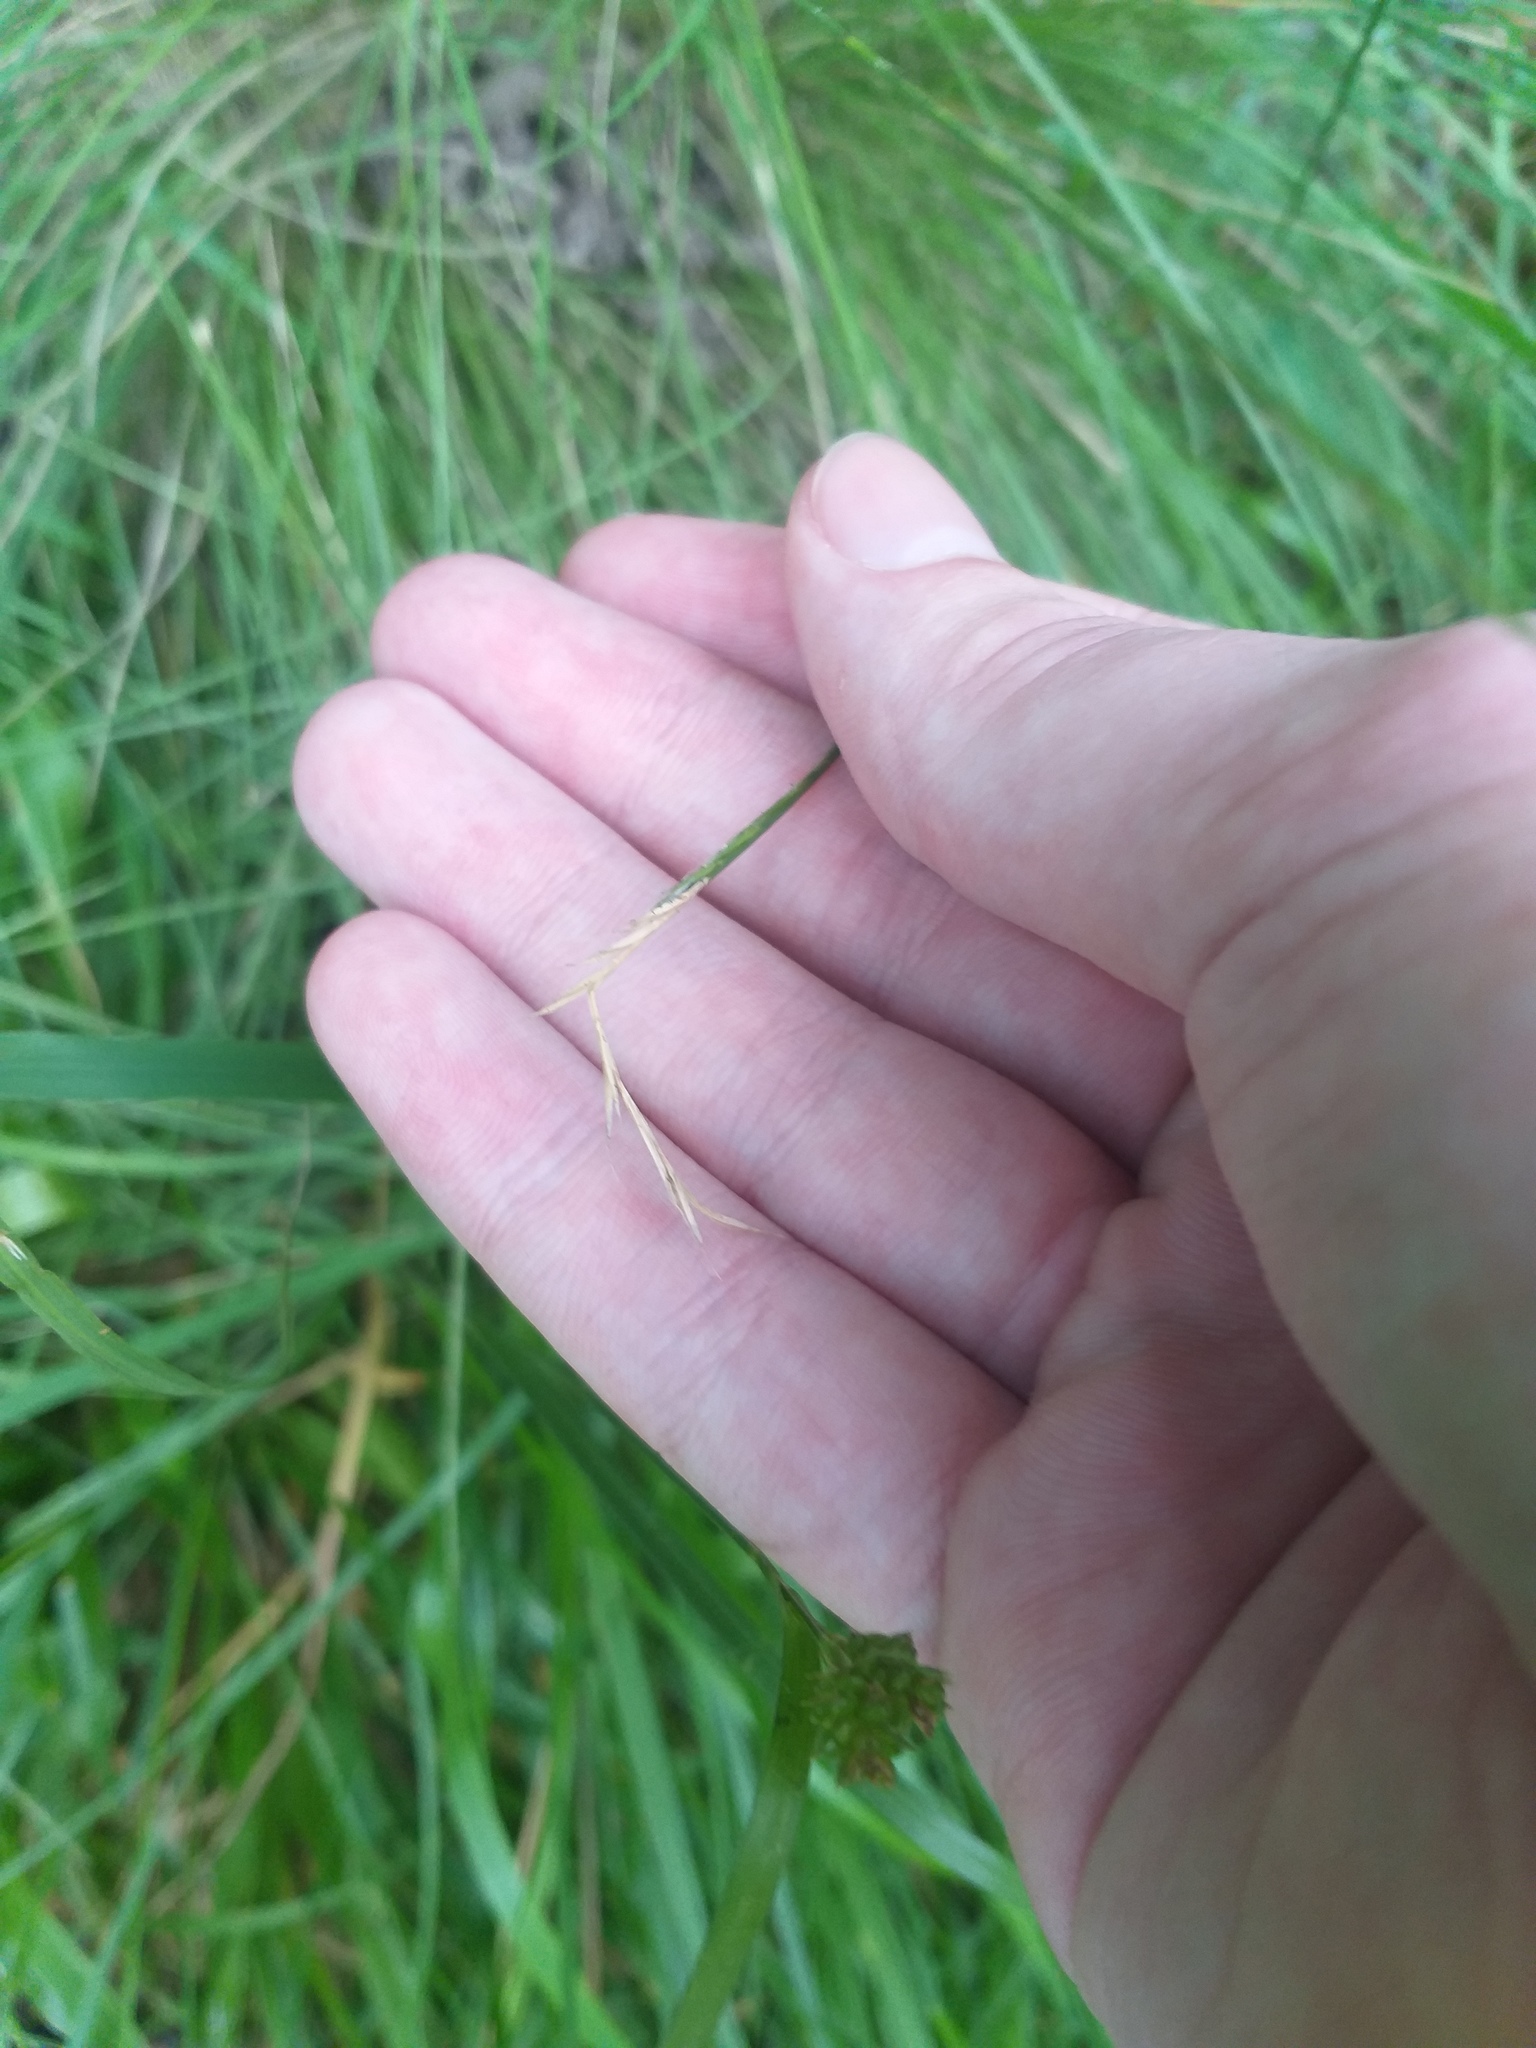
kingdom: Plantae
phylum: Tracheophyta
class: Liliopsida
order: Poales
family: Poaceae
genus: Nardus
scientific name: Nardus stricta
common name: Mat-grass
